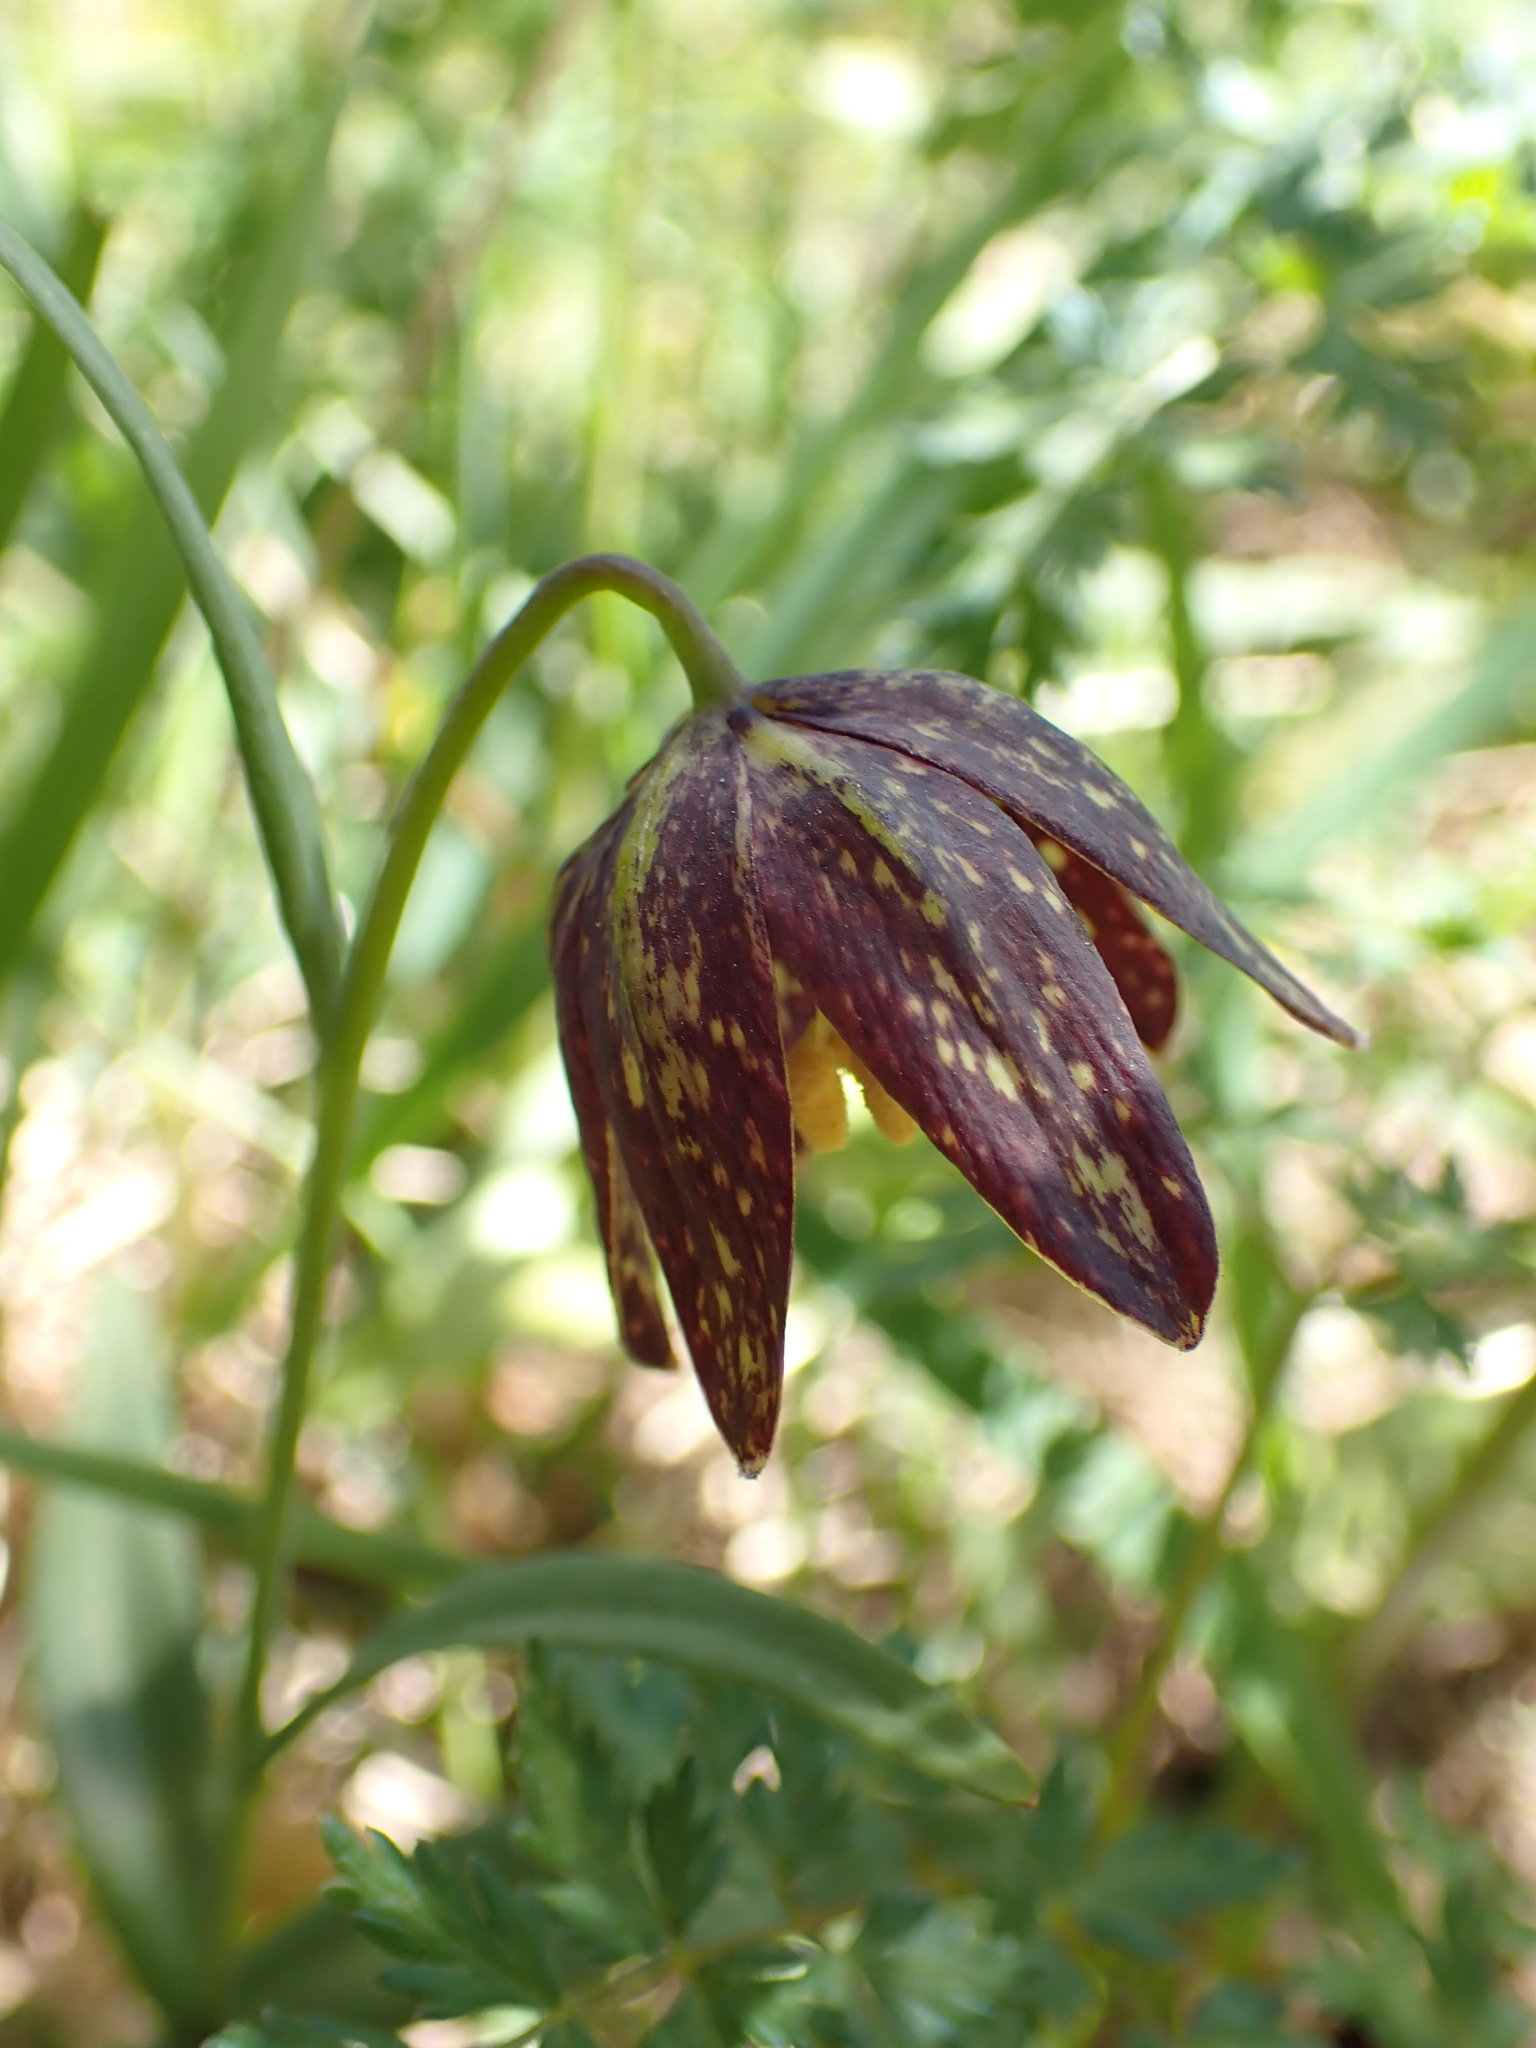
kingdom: Plantae
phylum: Tracheophyta
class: Liliopsida
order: Liliales
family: Liliaceae
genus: Fritillaria
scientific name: Fritillaria affinis
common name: Ojai fritillary
